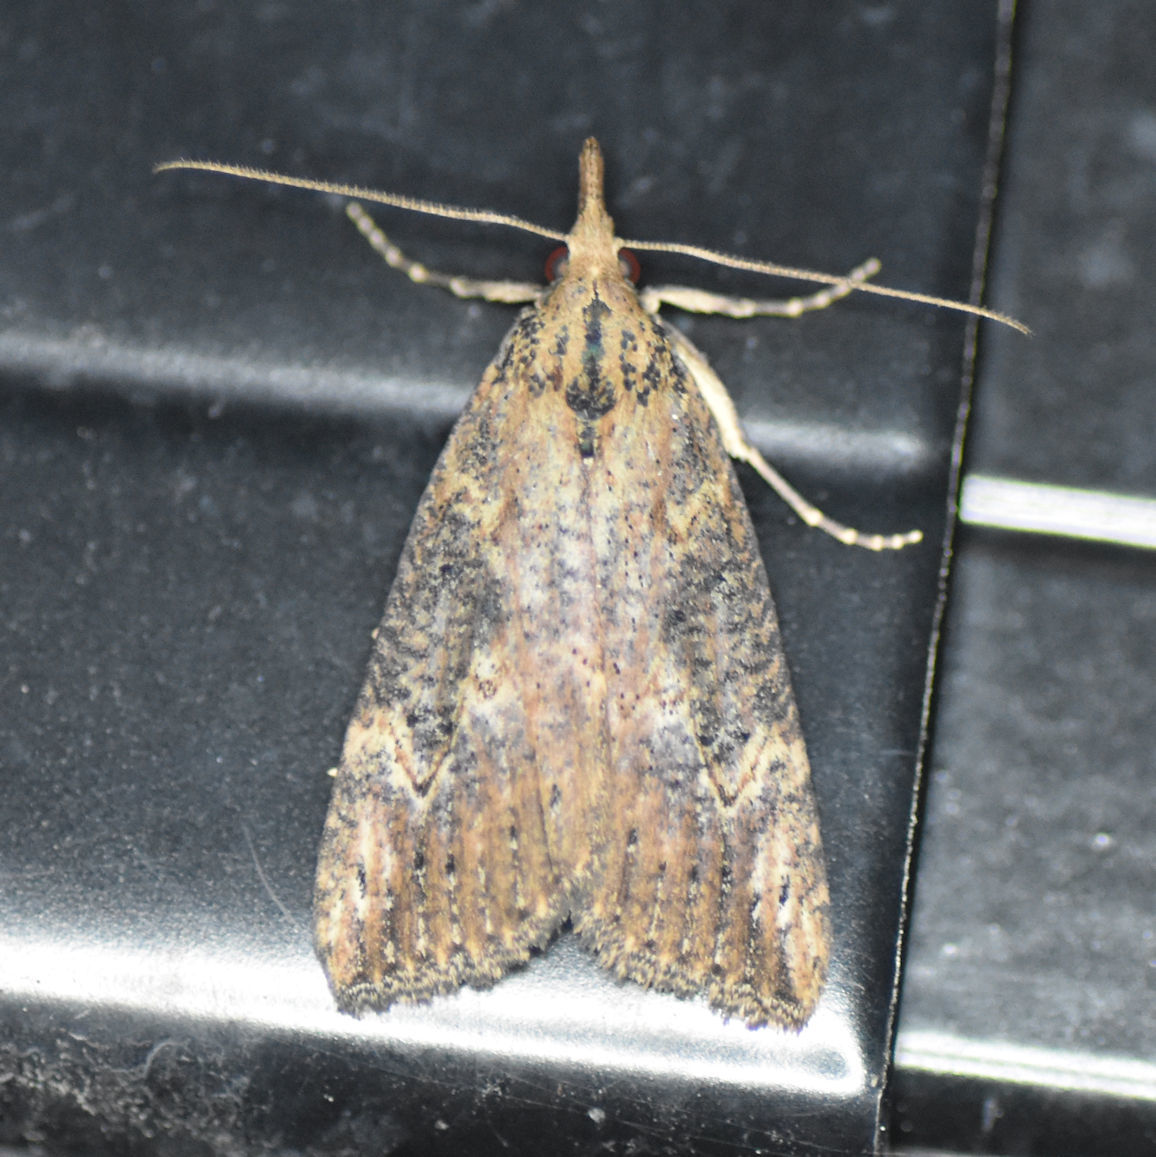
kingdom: Animalia
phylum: Arthropoda
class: Insecta
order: Lepidoptera
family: Erebidae
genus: Hypena
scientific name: Hypena humuli
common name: Hop vine snout
